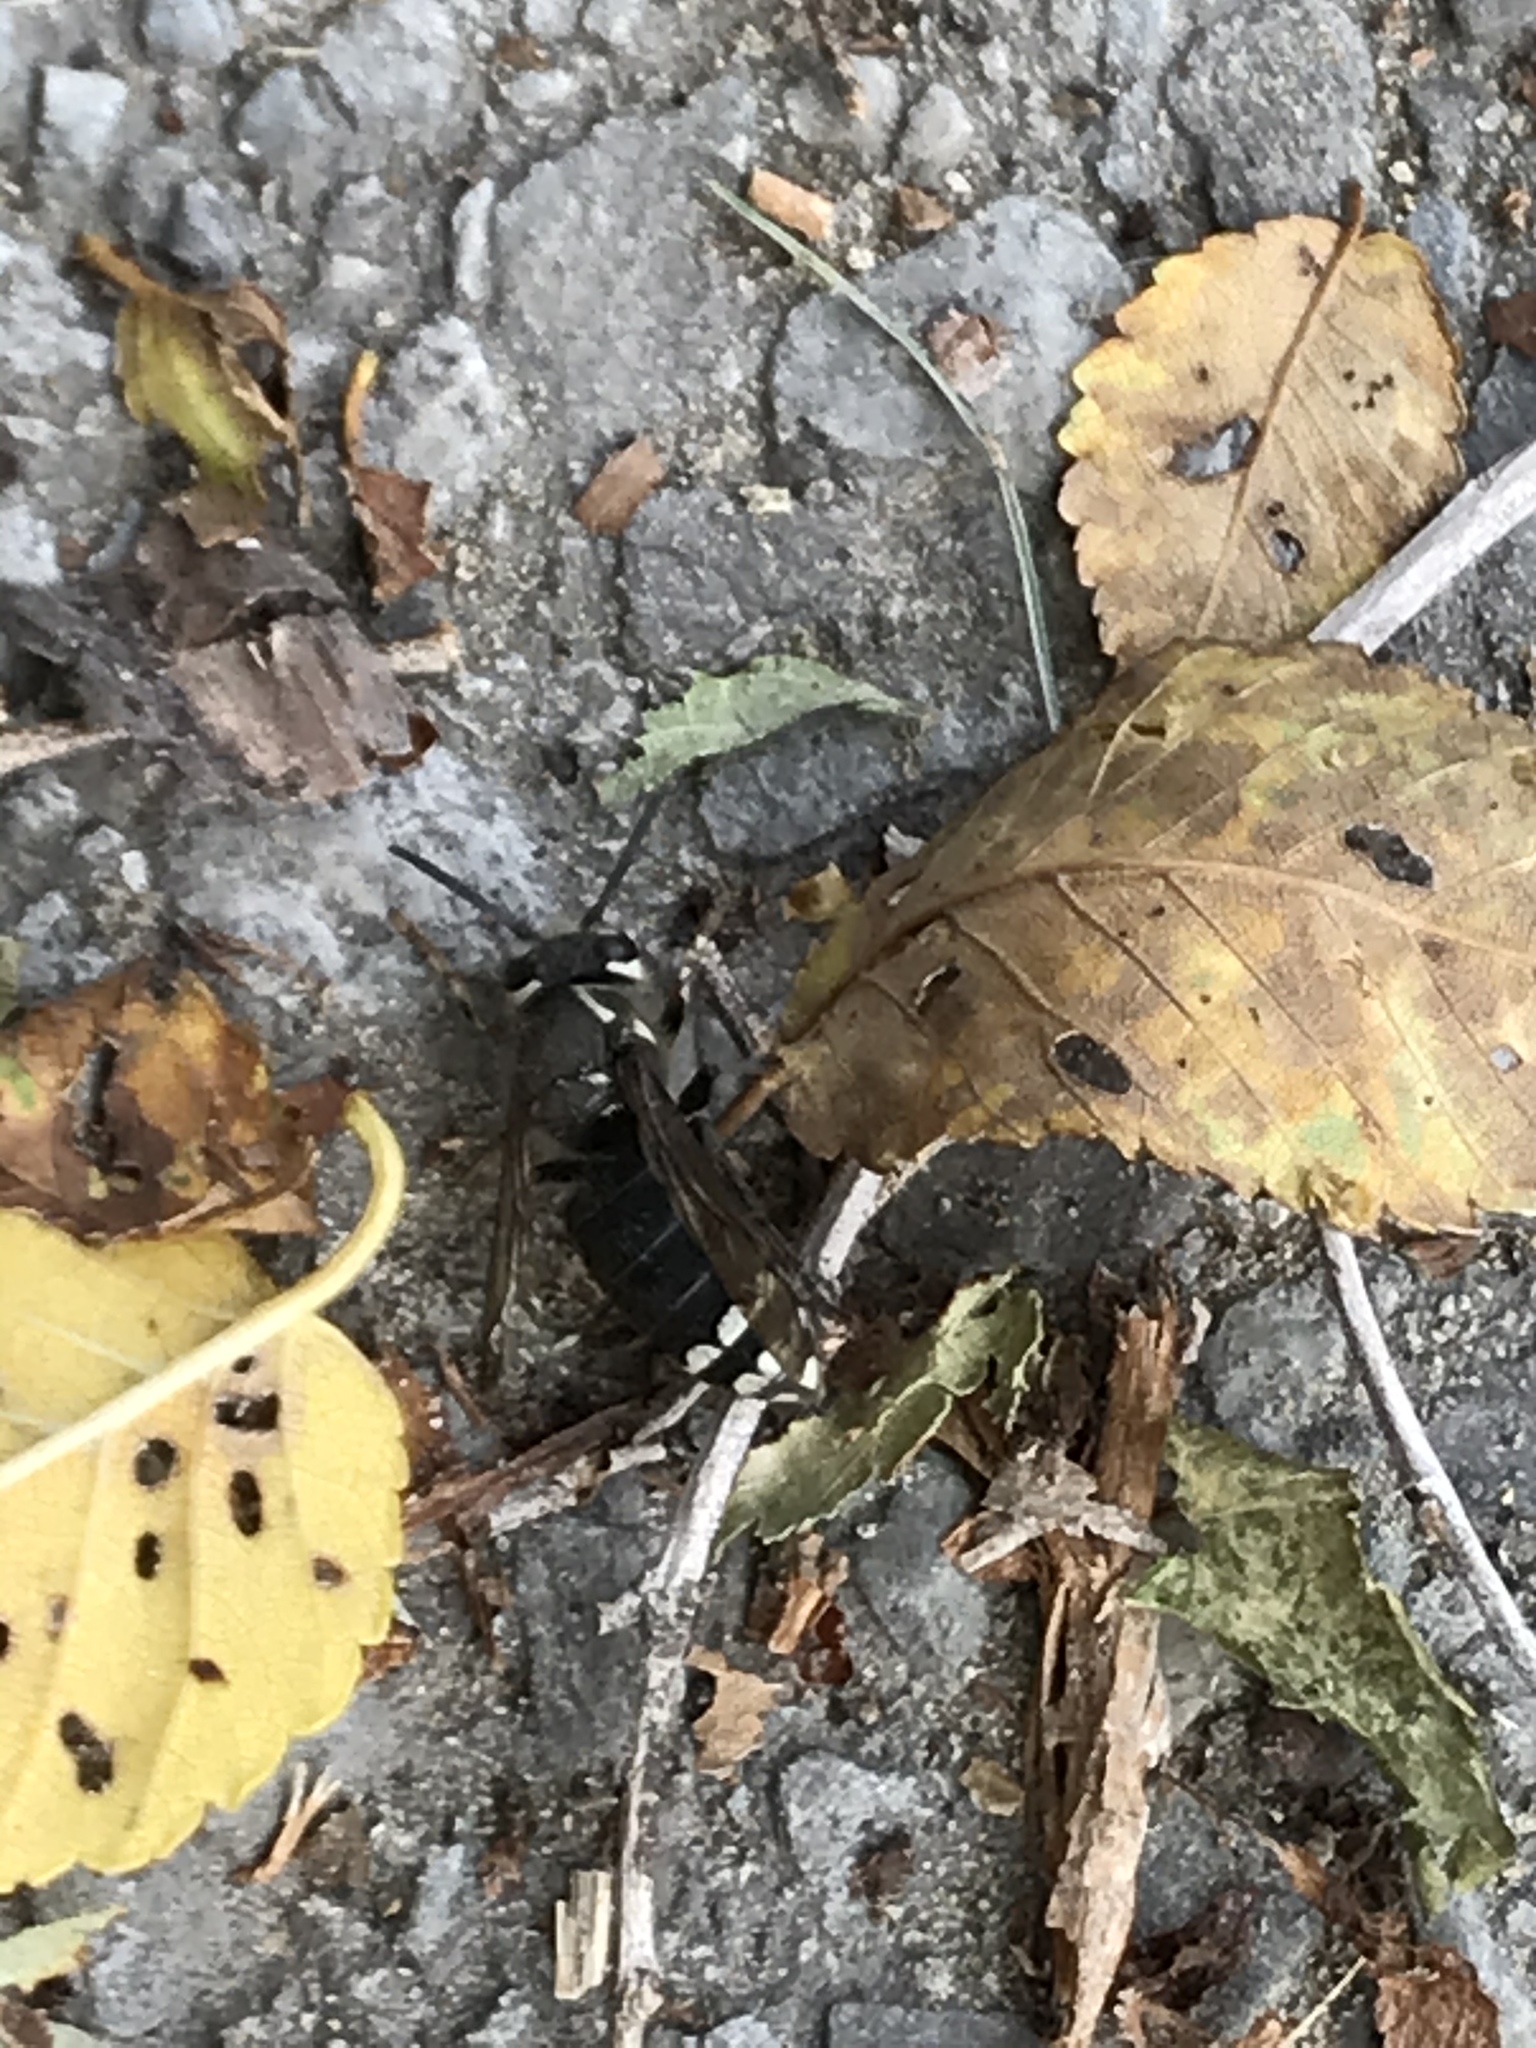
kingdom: Animalia
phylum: Arthropoda
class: Insecta
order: Hymenoptera
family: Vespidae
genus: Dolichovespula
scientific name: Dolichovespula maculata
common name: Bald-faced hornet
